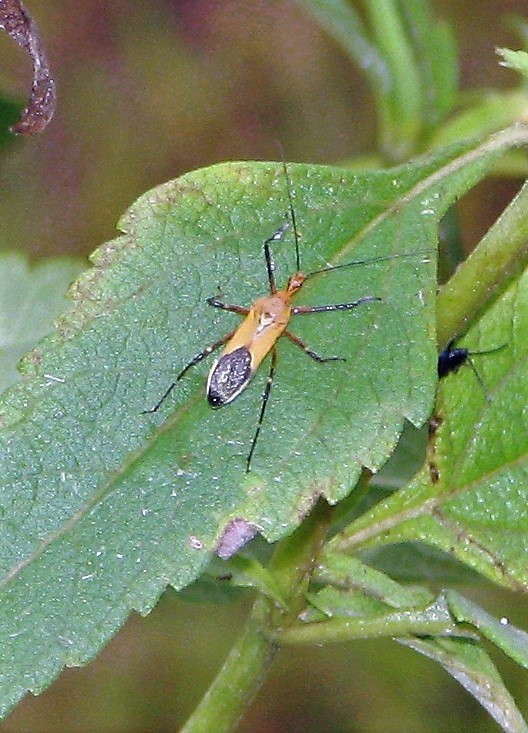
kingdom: Animalia
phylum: Arthropoda
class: Insecta
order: Hemiptera
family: Reduviidae
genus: Zelus
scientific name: Zelus laticornis
